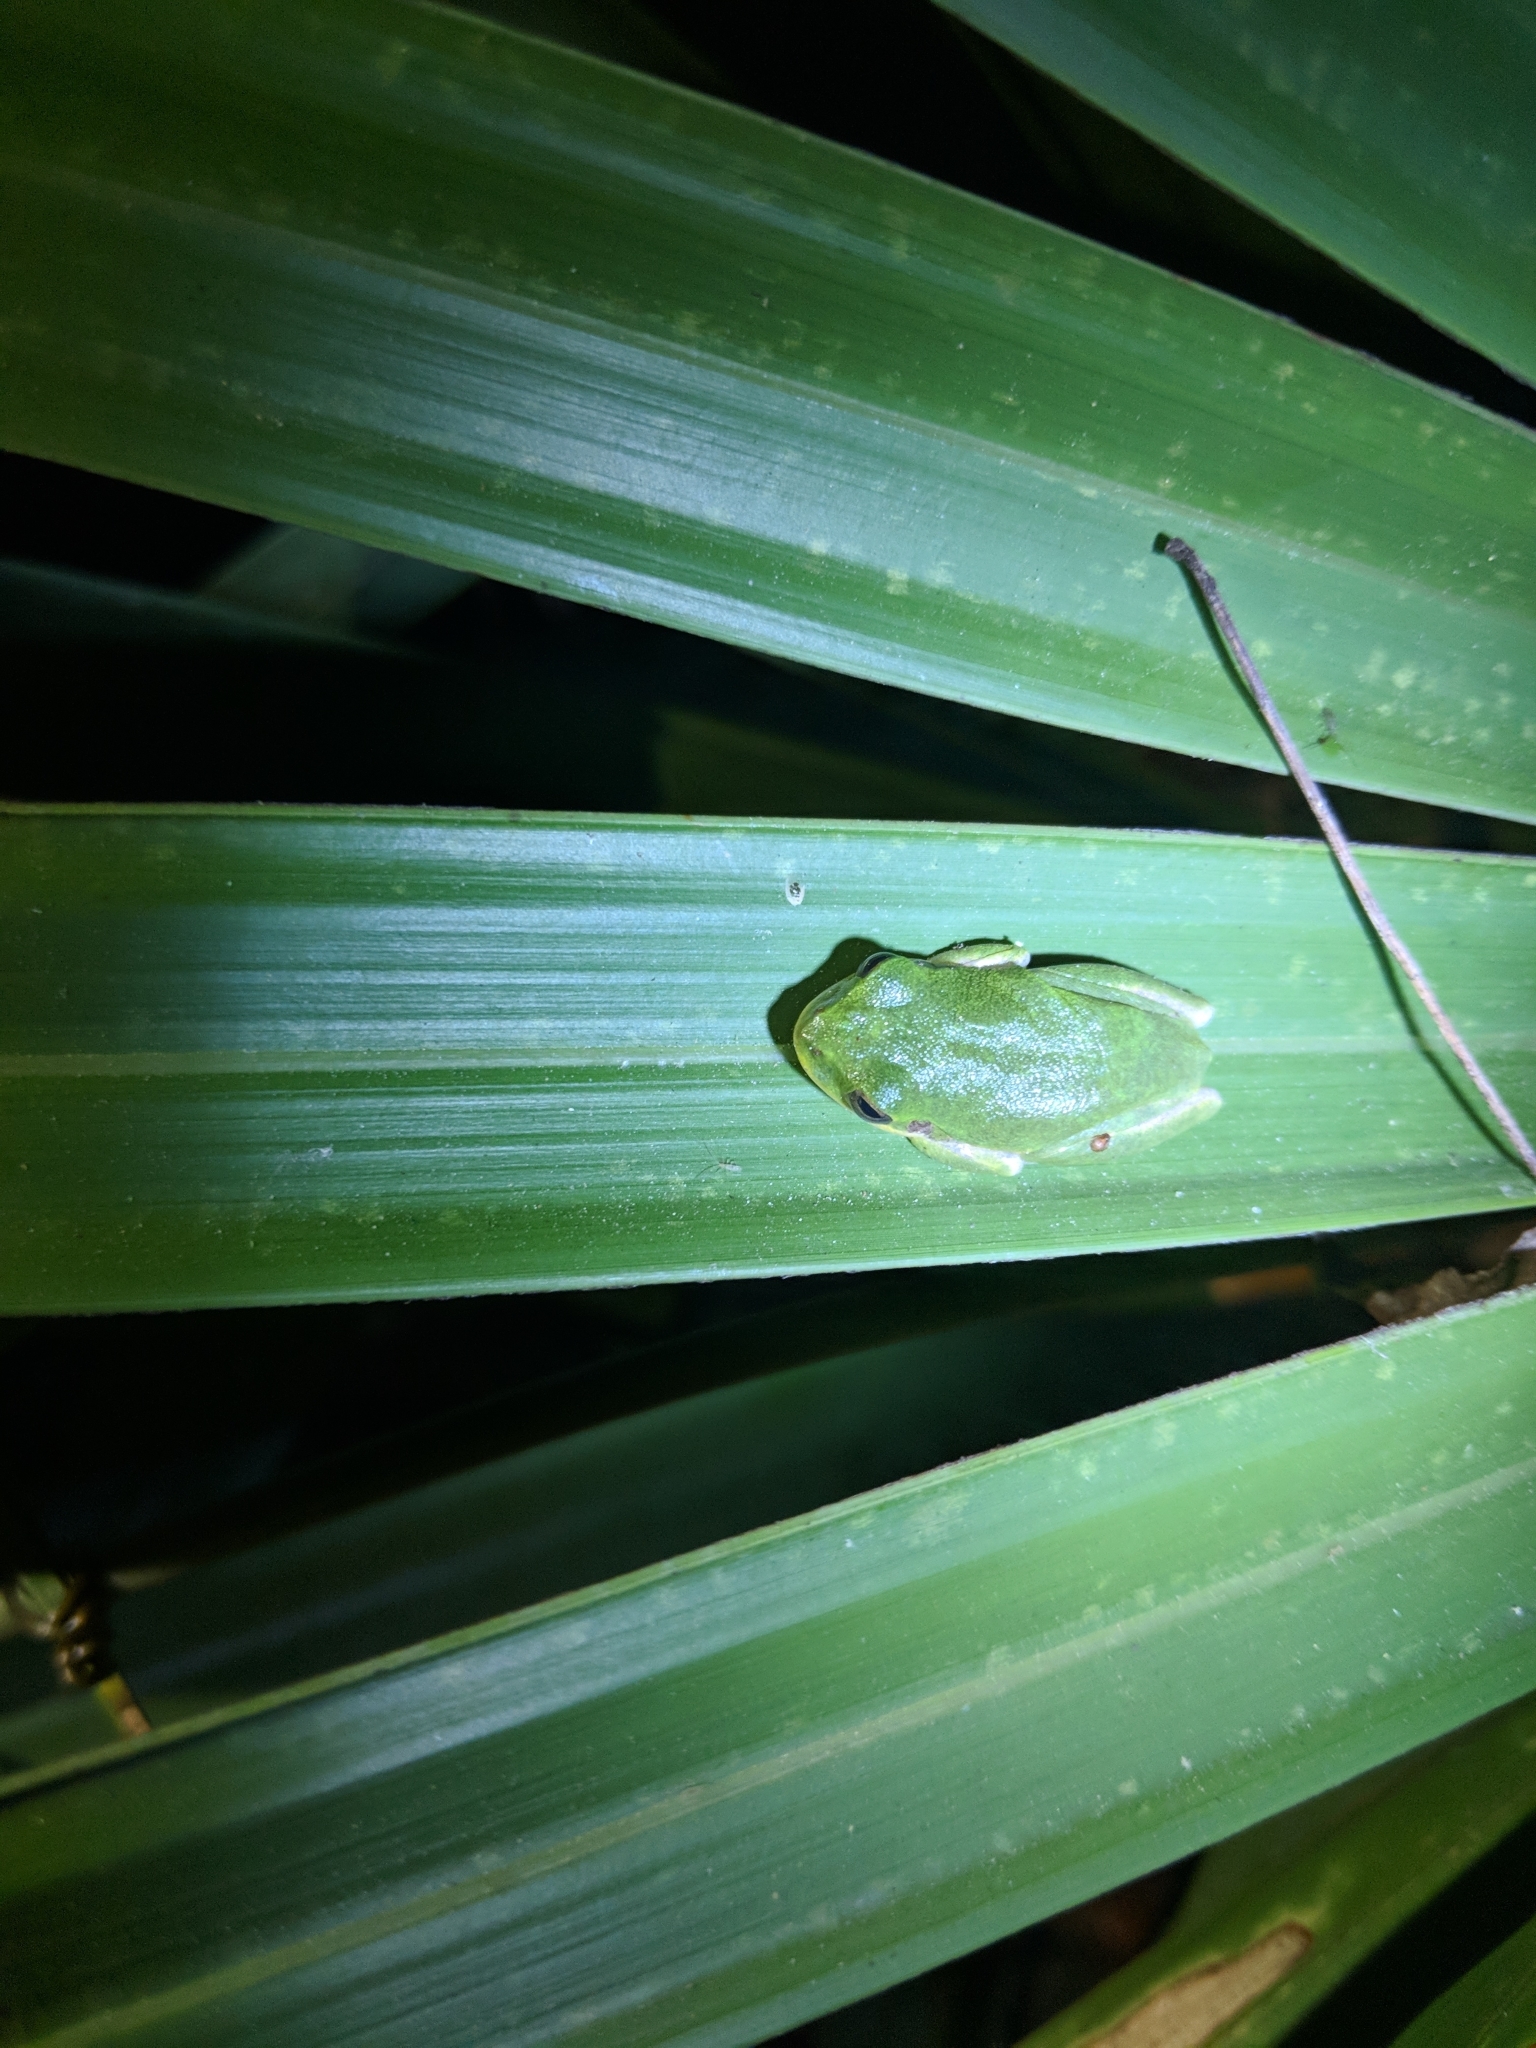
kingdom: Animalia
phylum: Chordata
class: Amphibia
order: Anura
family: Hylidae
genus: Dryophytes
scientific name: Dryophytes squirellus
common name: Squirrel treefrog
